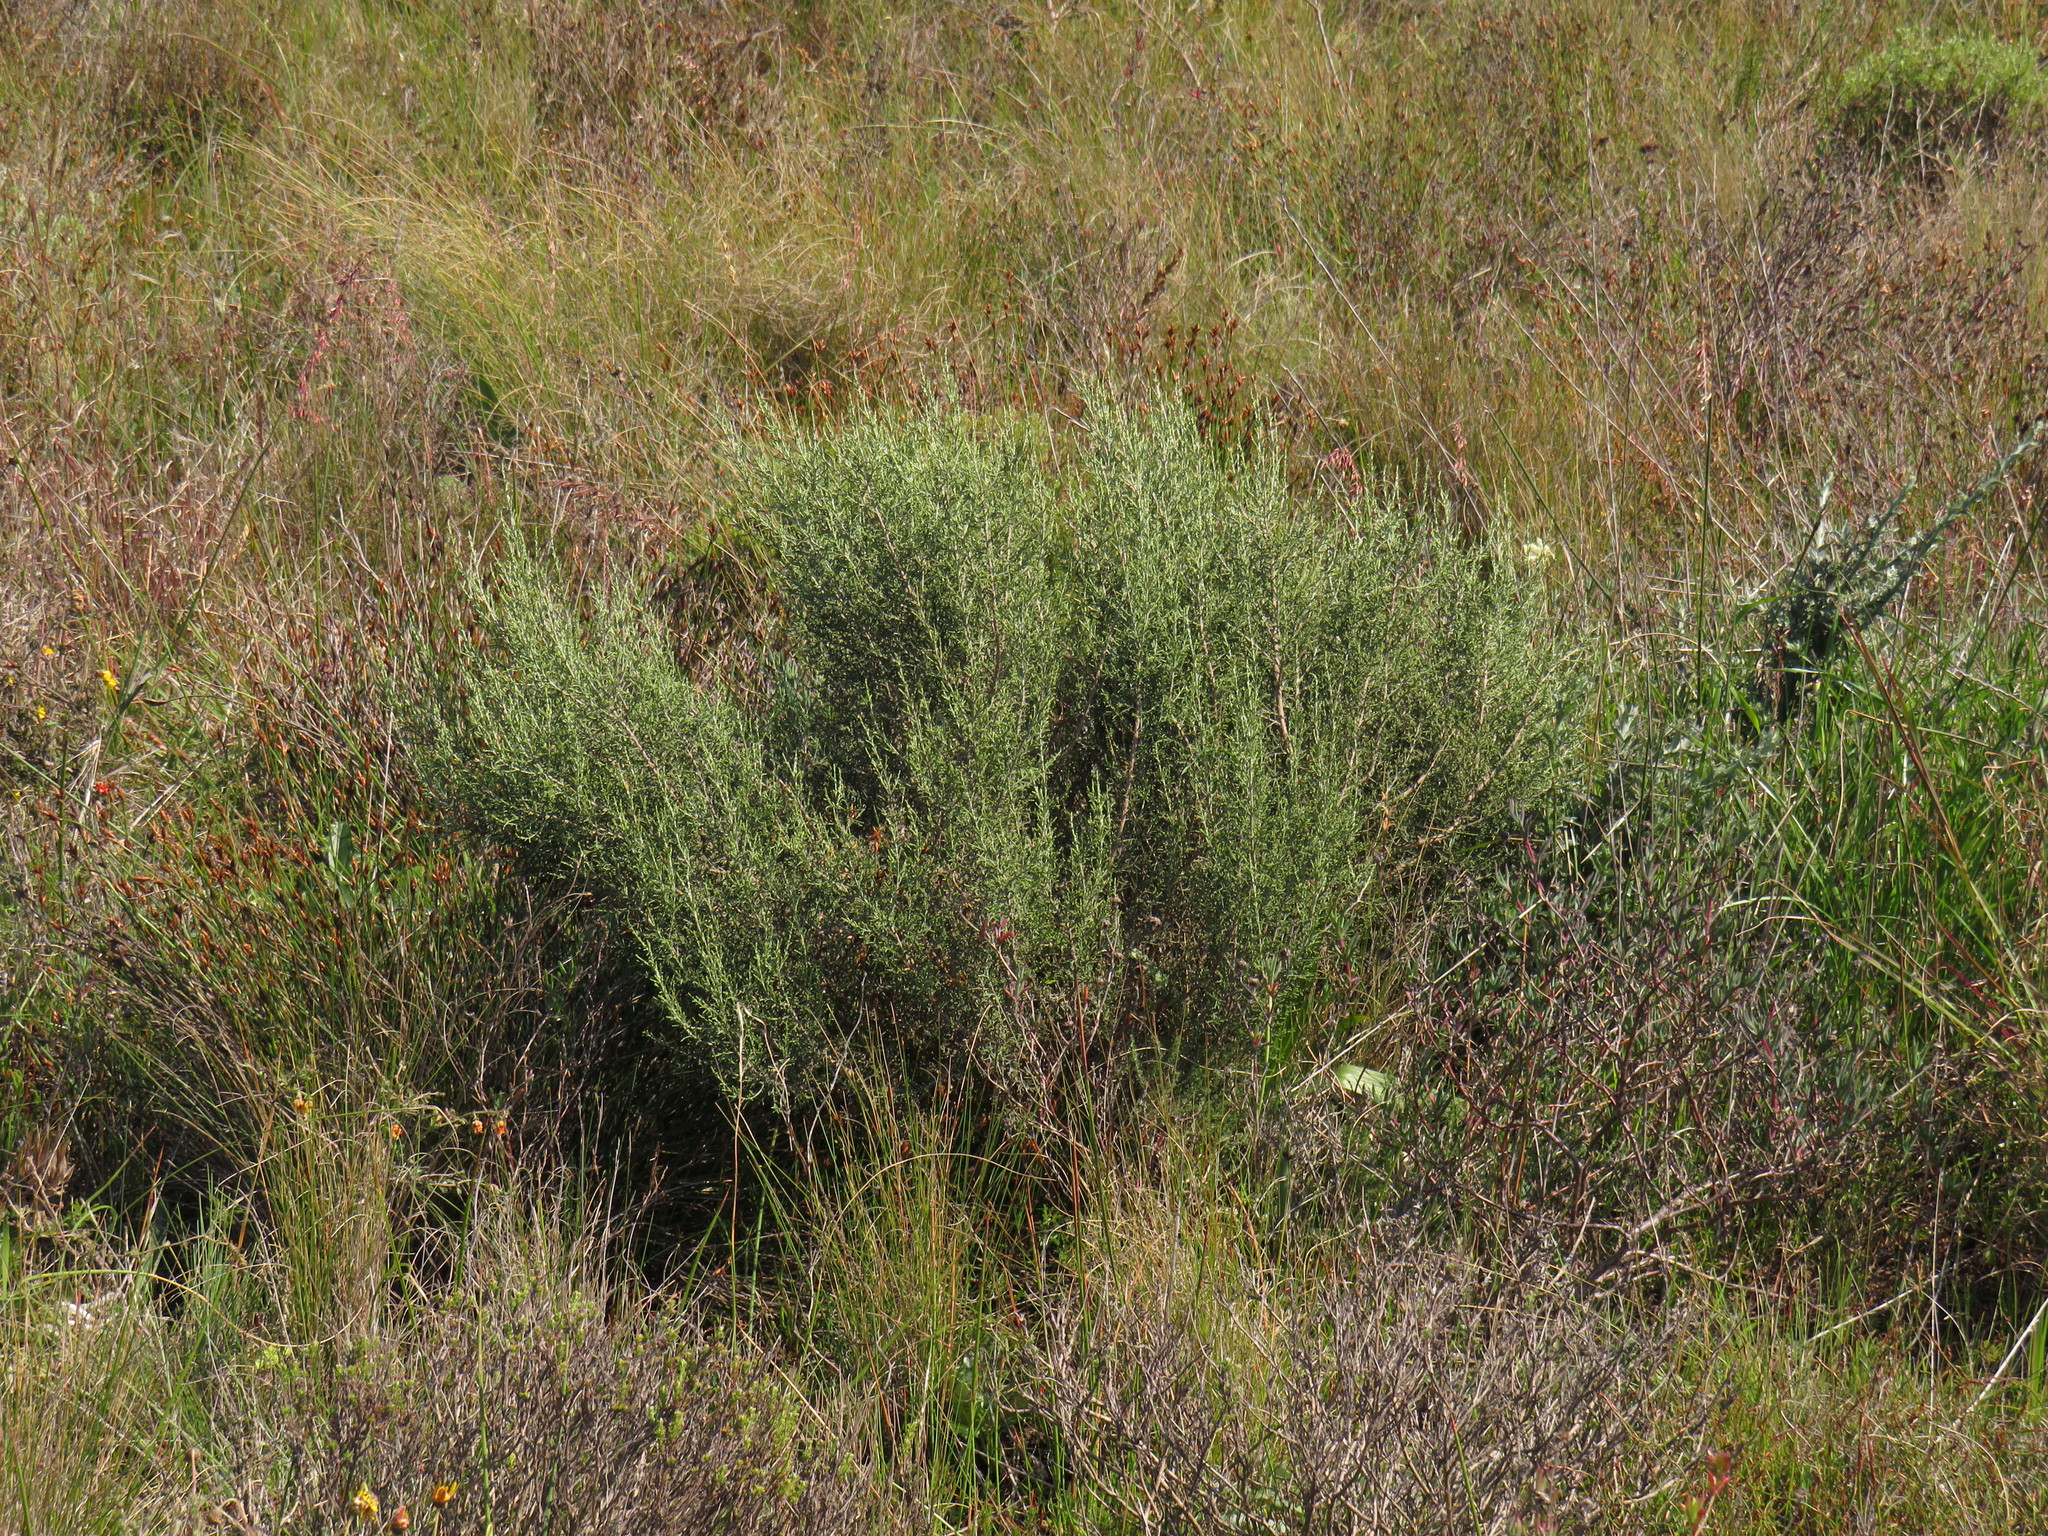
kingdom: Plantae
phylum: Tracheophyta
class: Magnoliopsida
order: Asterales
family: Asteraceae
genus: Dicerothamnus
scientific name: Dicerothamnus rhinocerotis
